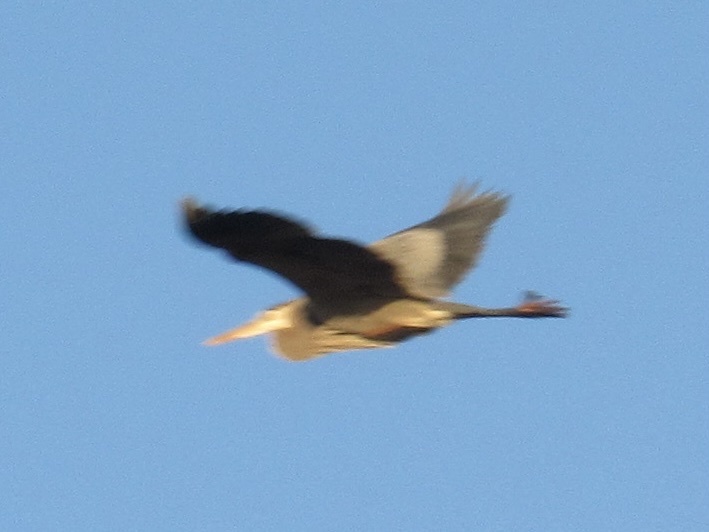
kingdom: Animalia
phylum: Chordata
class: Aves
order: Pelecaniformes
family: Ardeidae
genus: Ardea
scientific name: Ardea herodias
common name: Great blue heron
